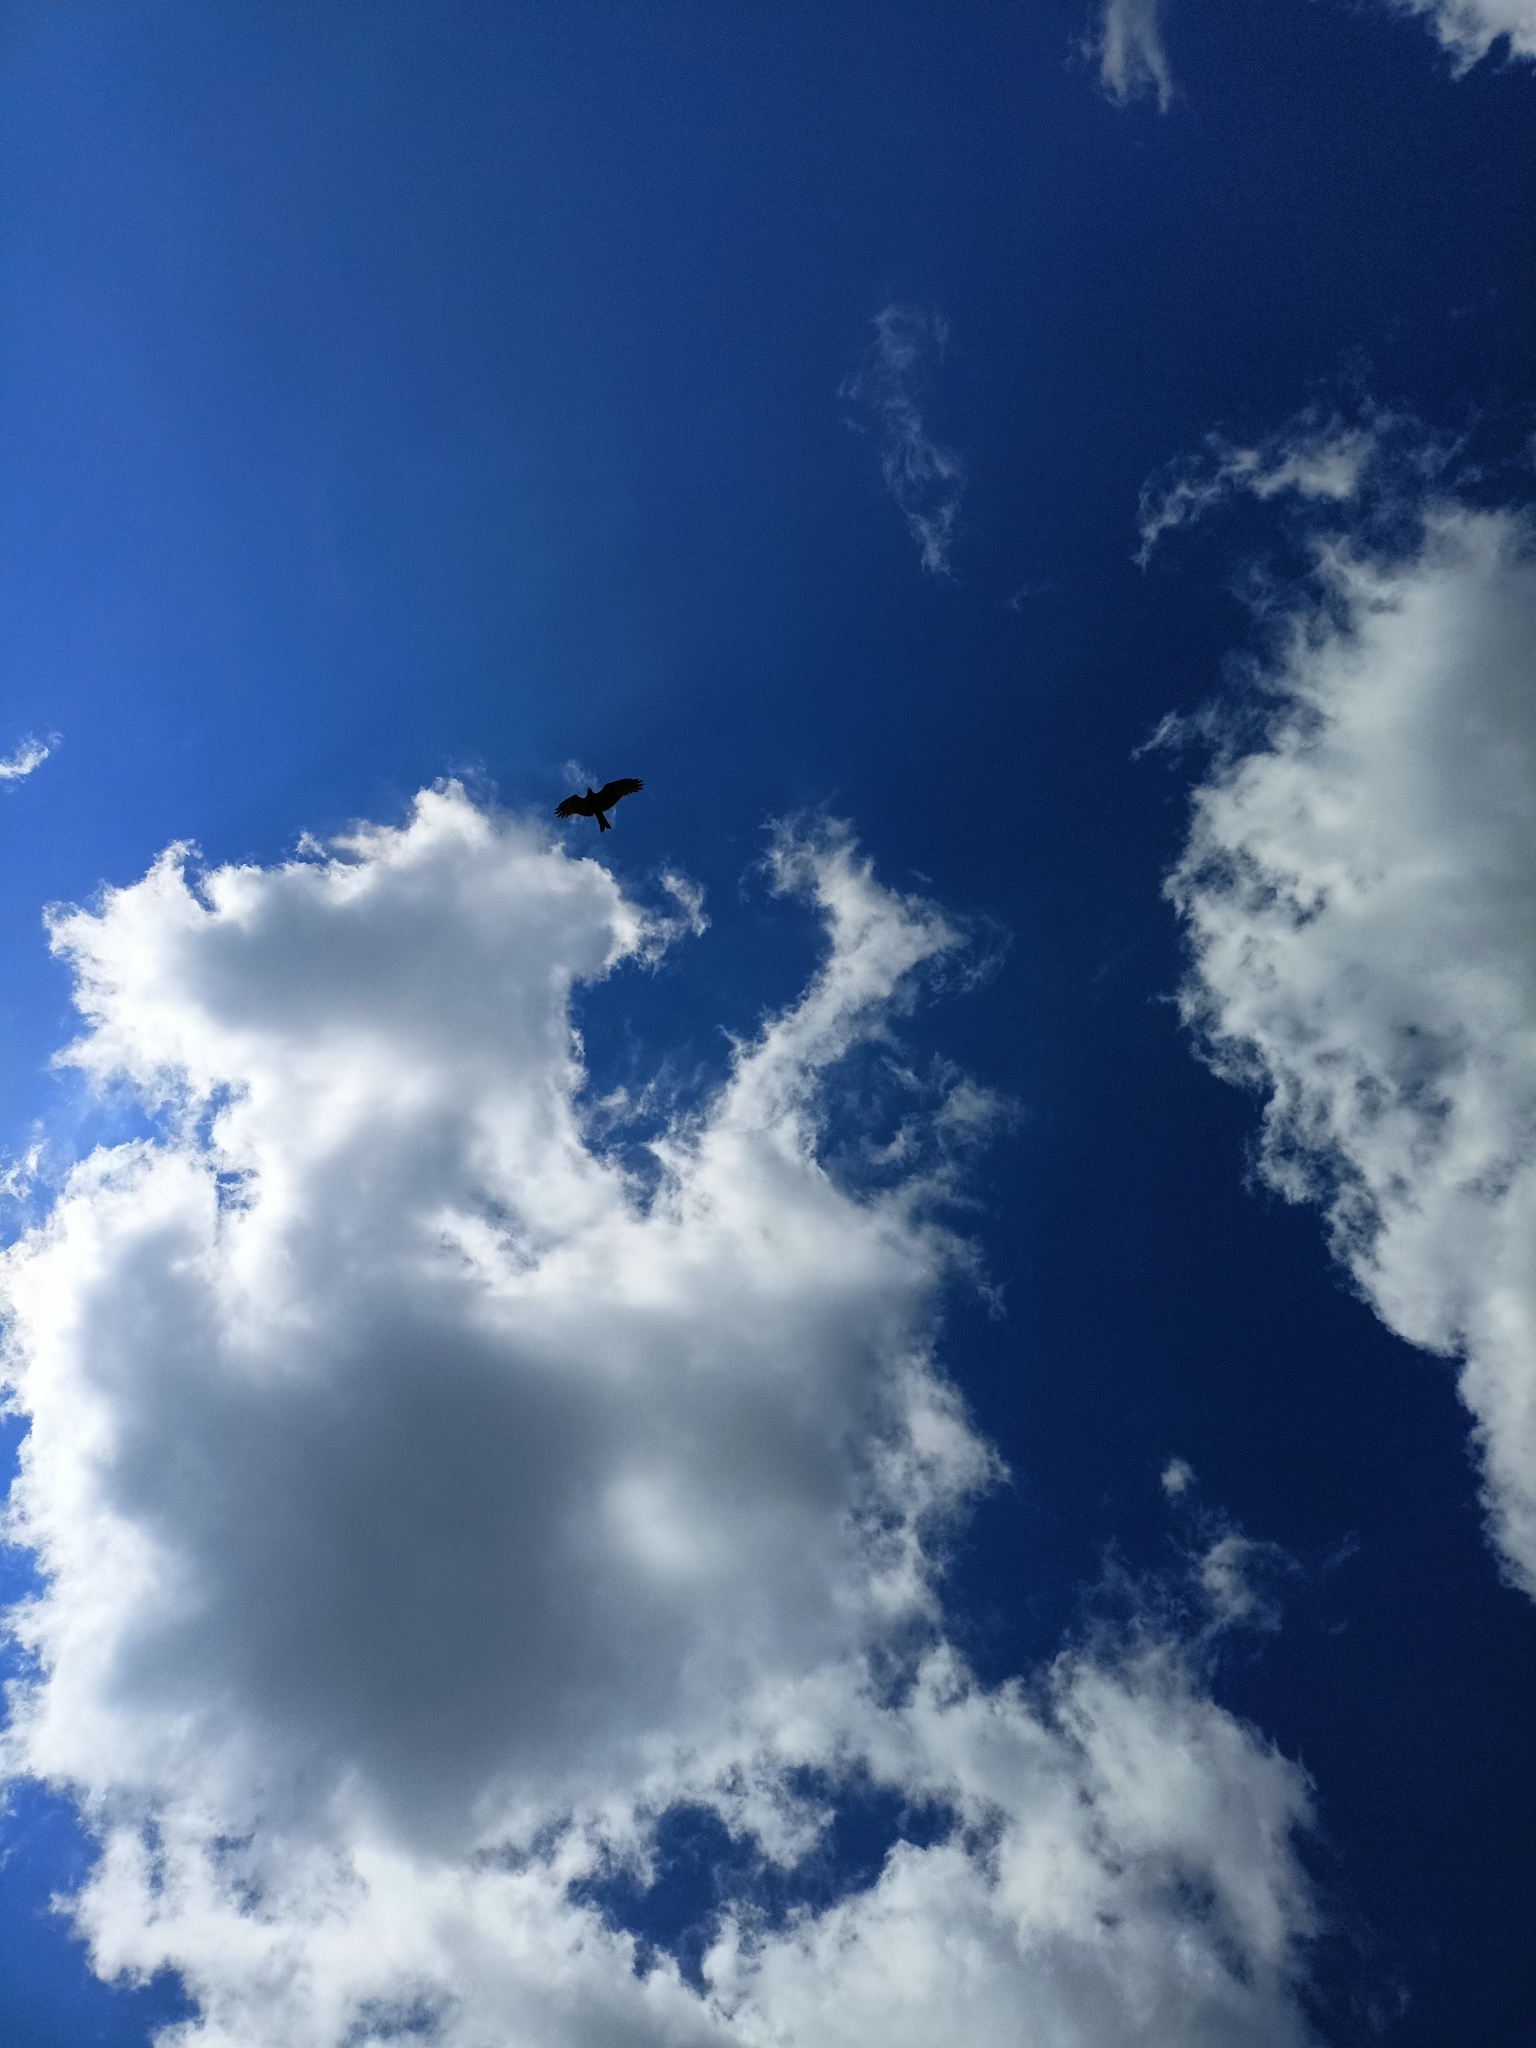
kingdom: Animalia
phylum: Chordata
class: Aves
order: Accipitriformes
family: Accipitridae
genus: Milvus
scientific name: Milvus migrans
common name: Black kite
